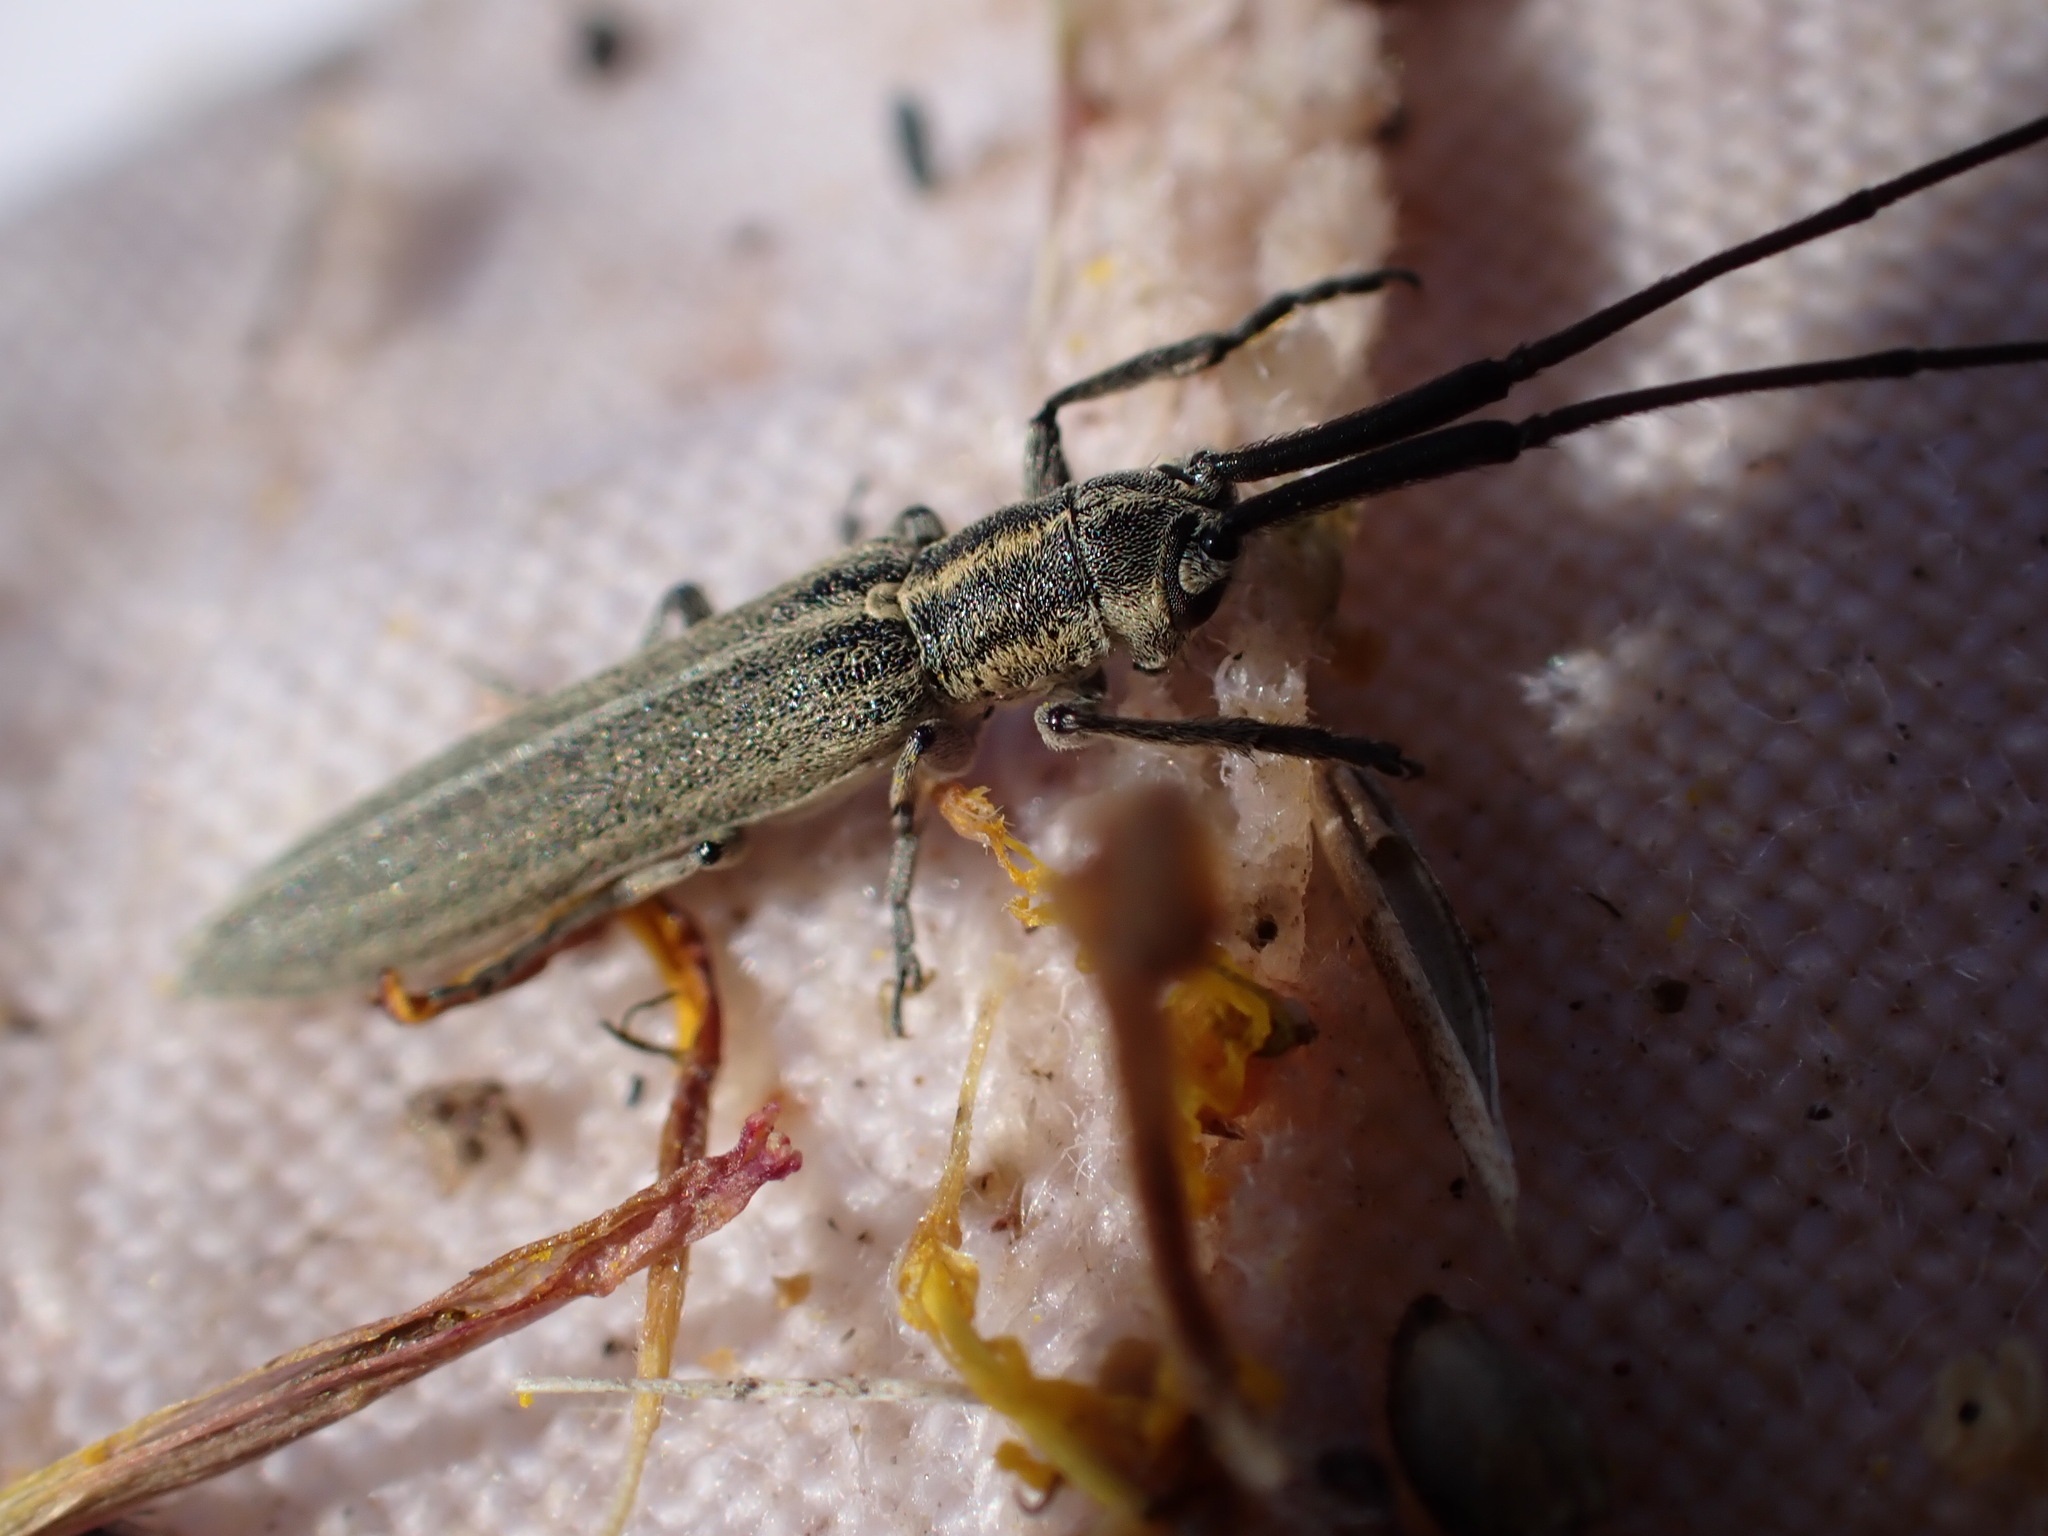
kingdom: Animalia
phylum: Arthropoda
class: Insecta
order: Coleoptera
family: Cerambycidae
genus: Calamobius
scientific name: Calamobius filum
